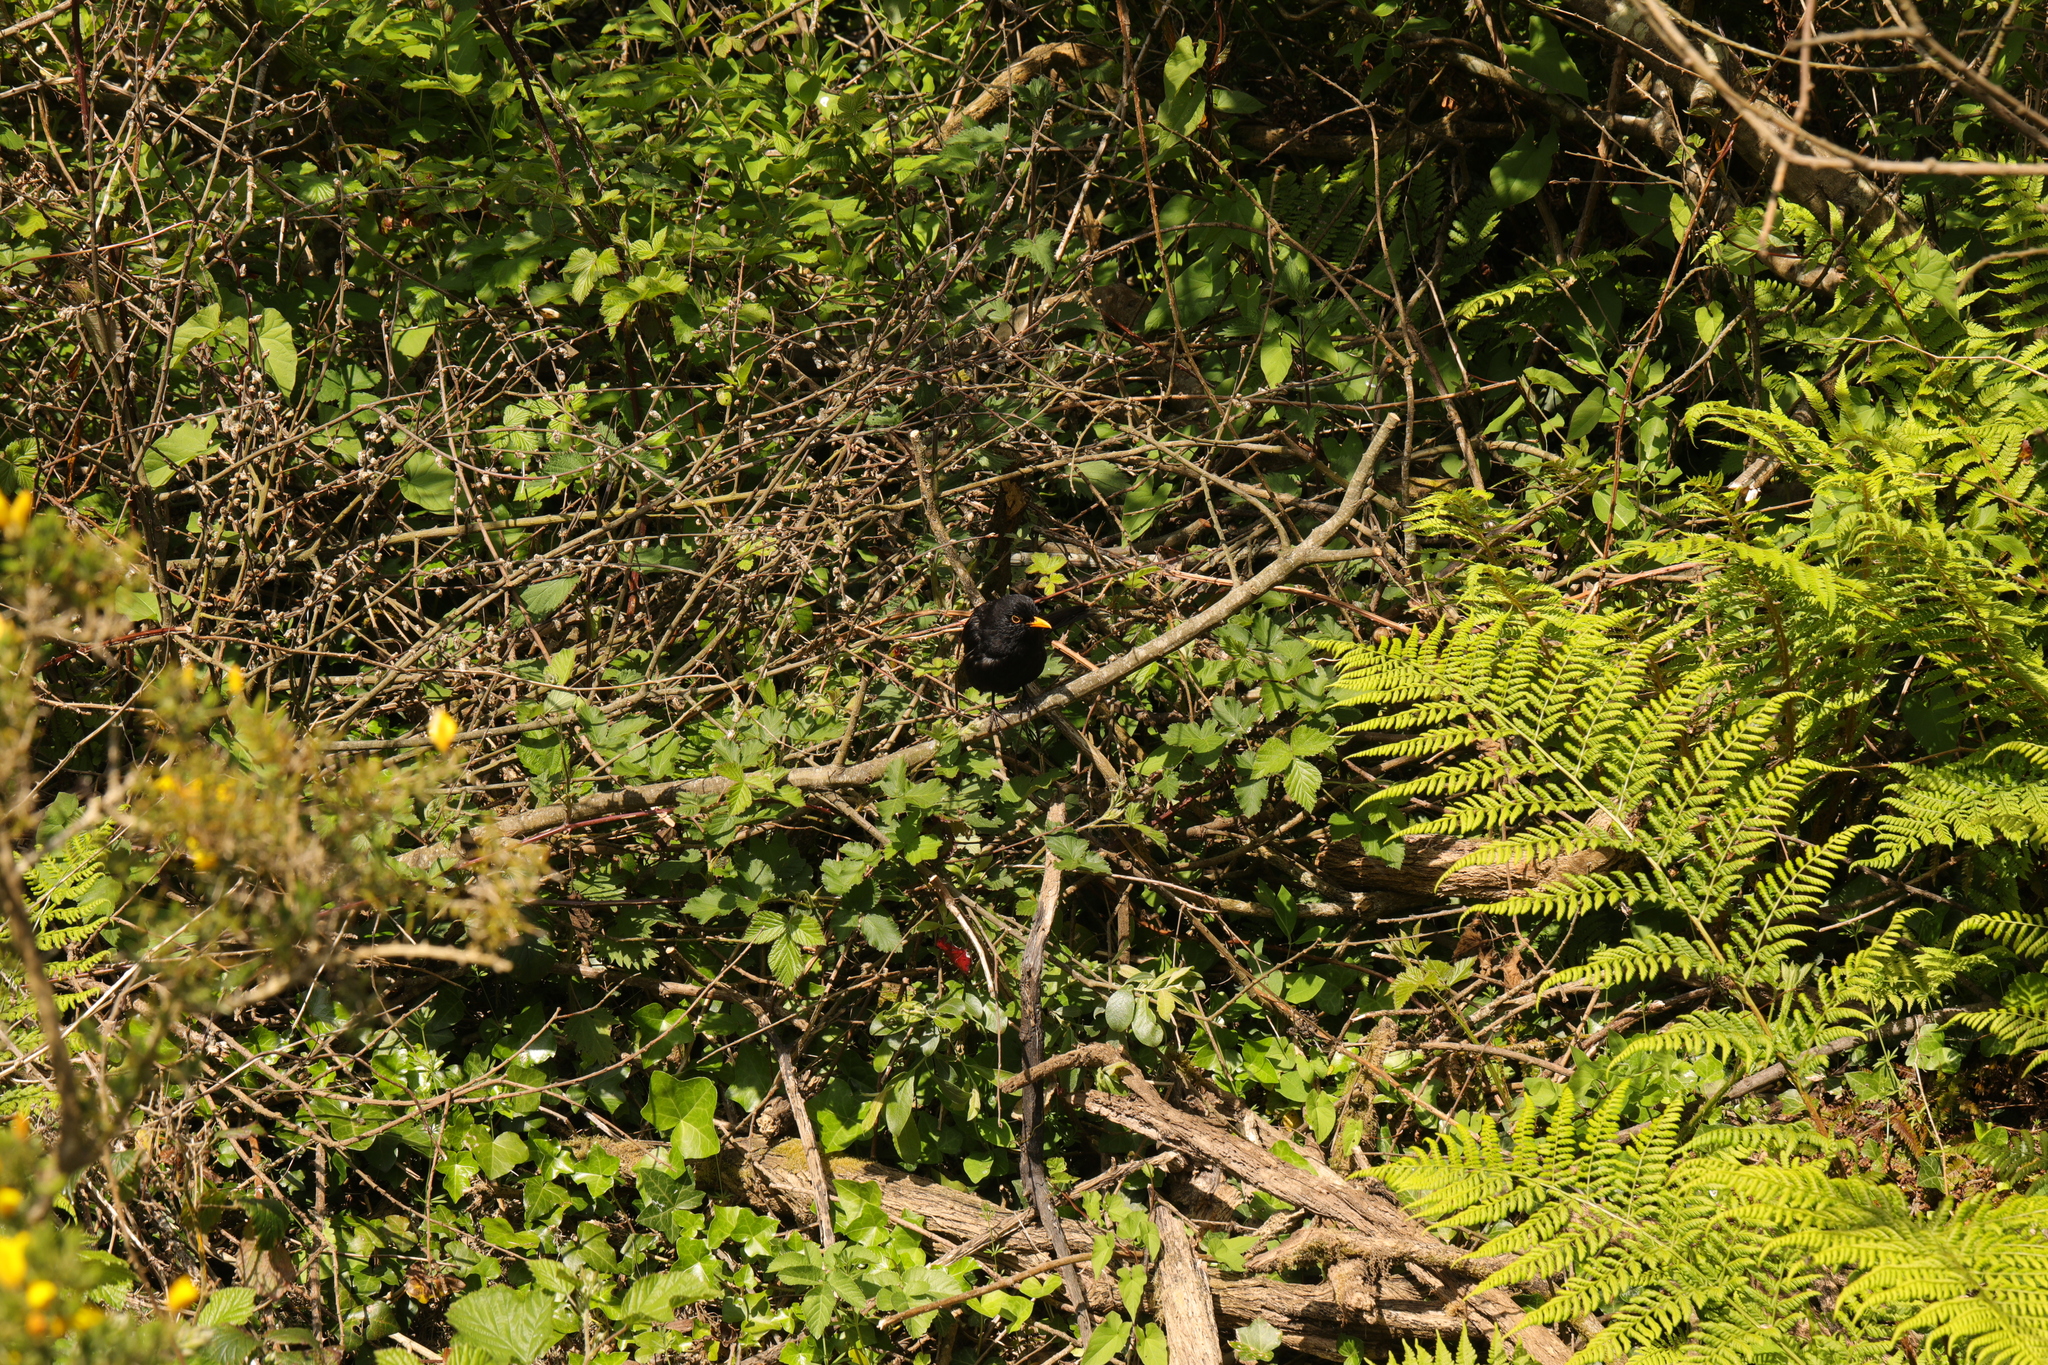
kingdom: Animalia
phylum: Chordata
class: Aves
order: Passeriformes
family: Turdidae
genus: Turdus
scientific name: Turdus merula
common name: Common blackbird
